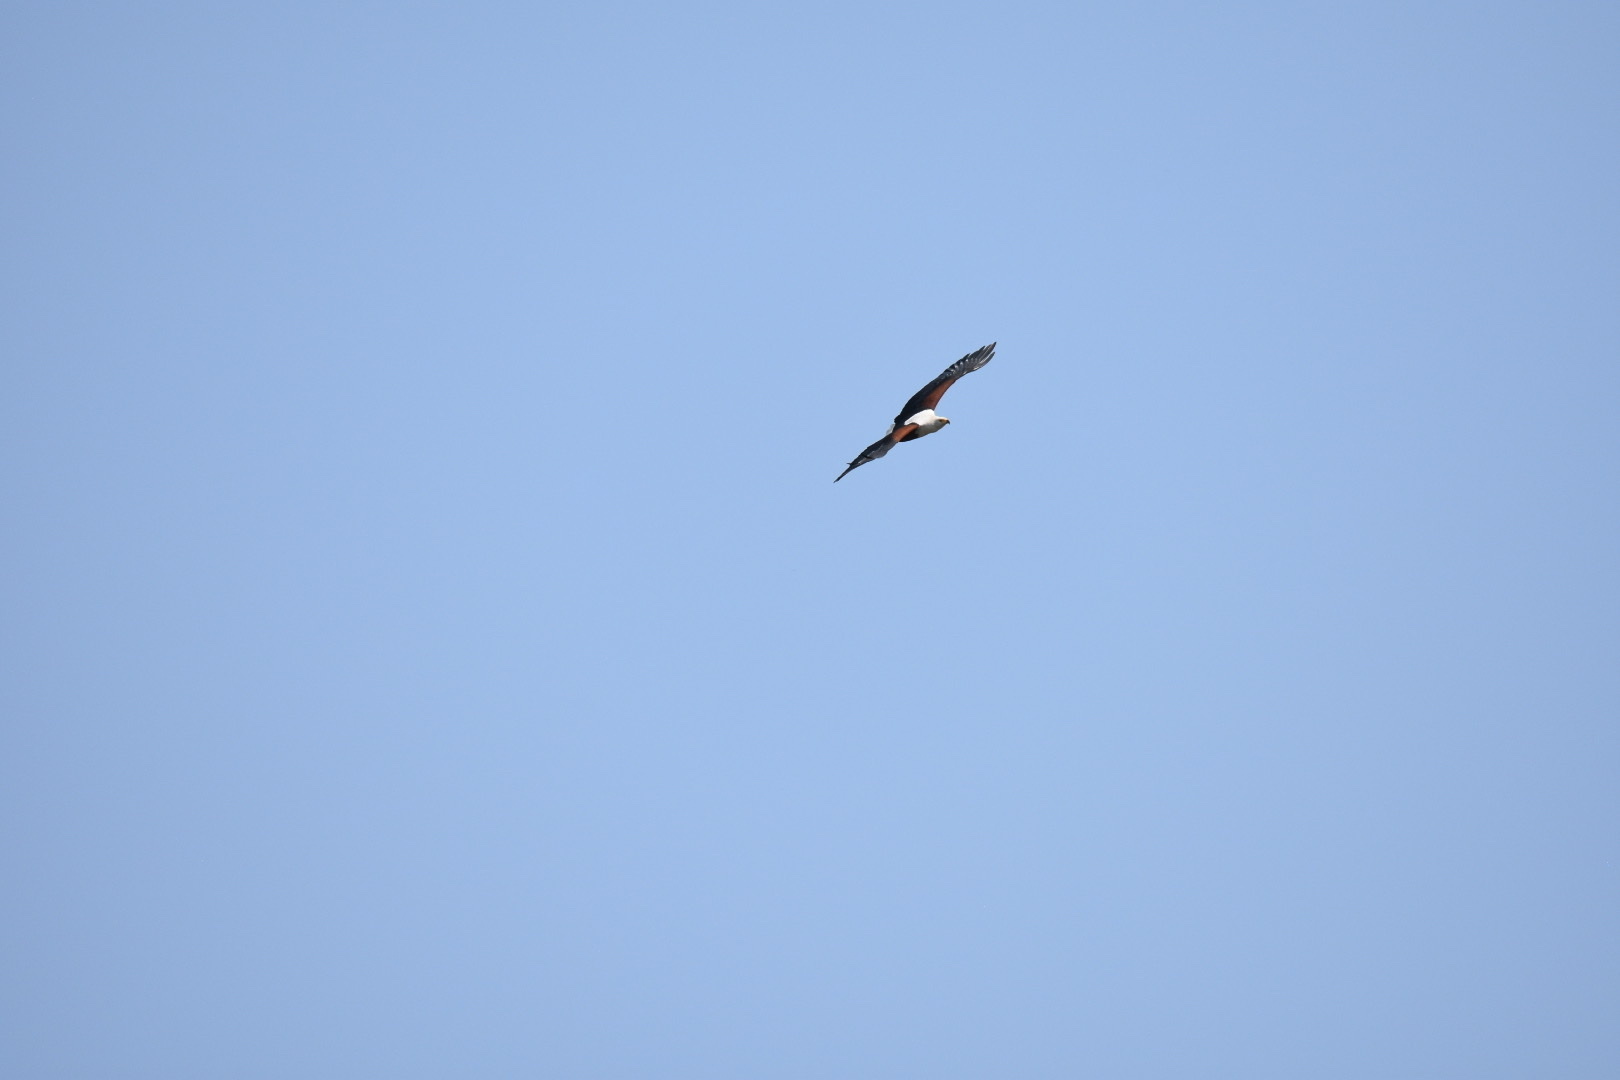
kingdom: Animalia
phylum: Chordata
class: Aves
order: Accipitriformes
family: Accipitridae
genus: Haliaeetus
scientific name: Haliaeetus vocifer
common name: African fish eagle
